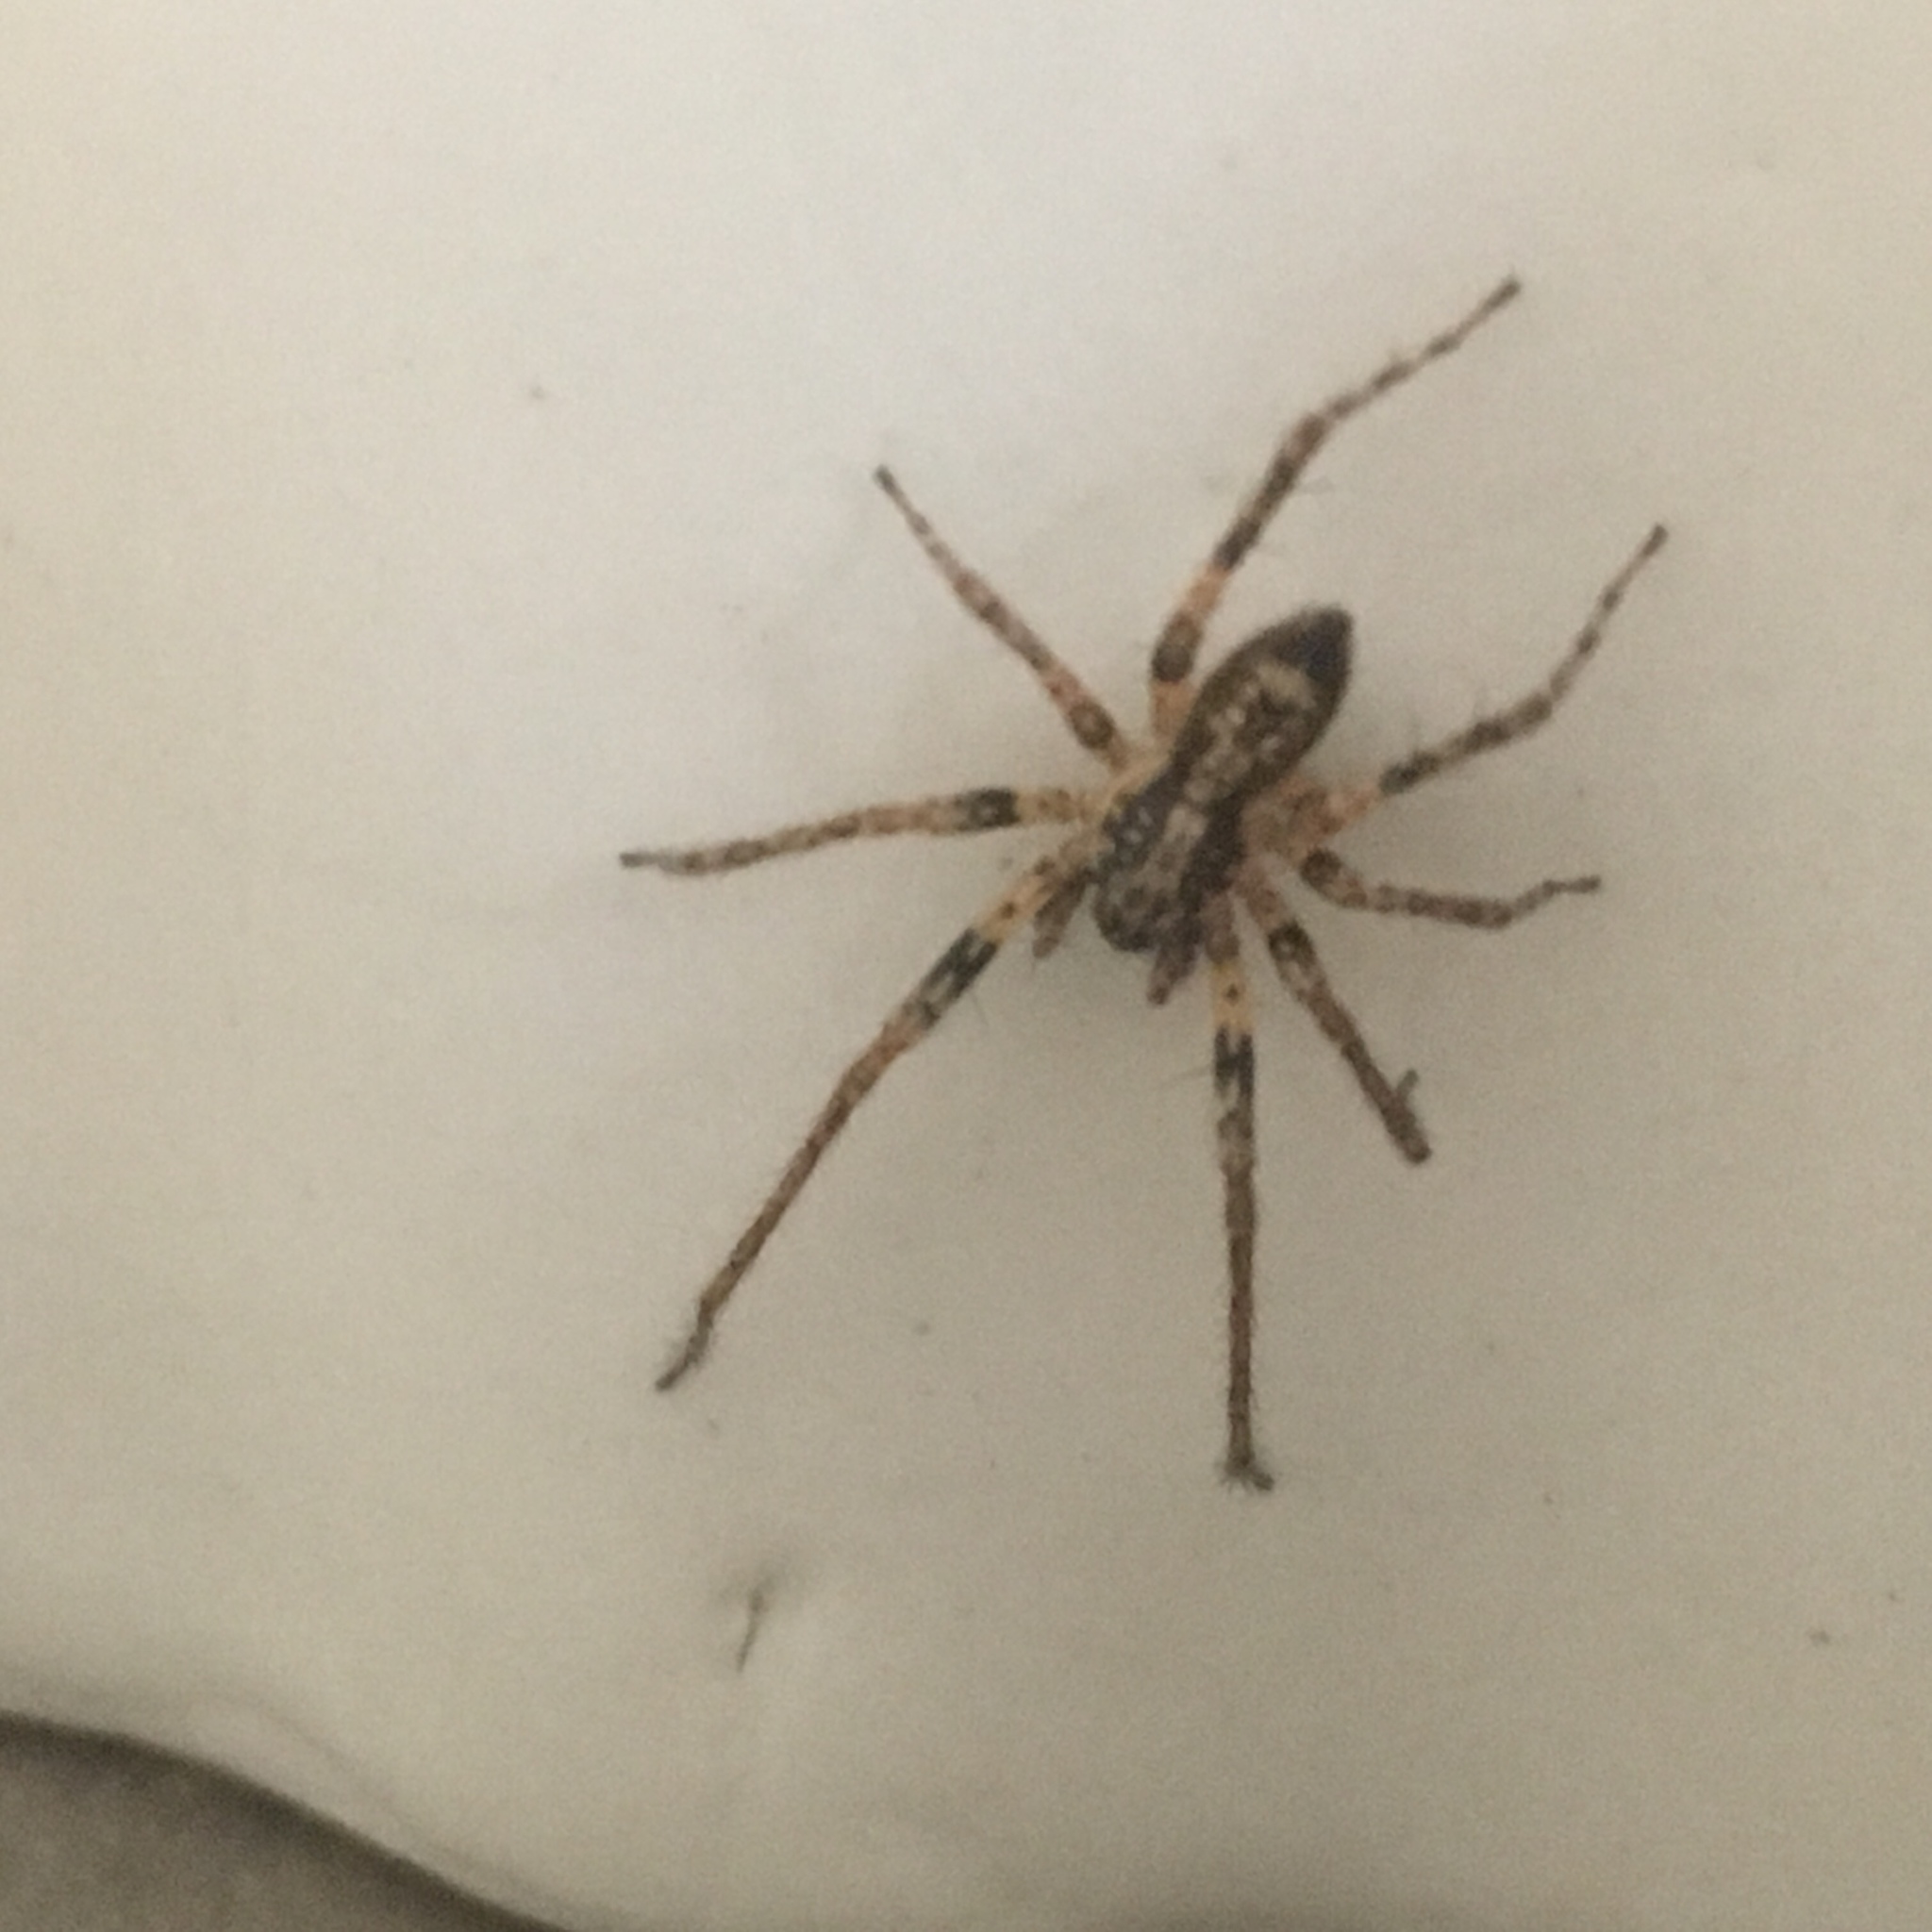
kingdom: Animalia
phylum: Arthropoda
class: Arachnida
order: Araneae
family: Anyphaenidae
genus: Anyphaena
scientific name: Anyphaena accentuata
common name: Buzzing spider
